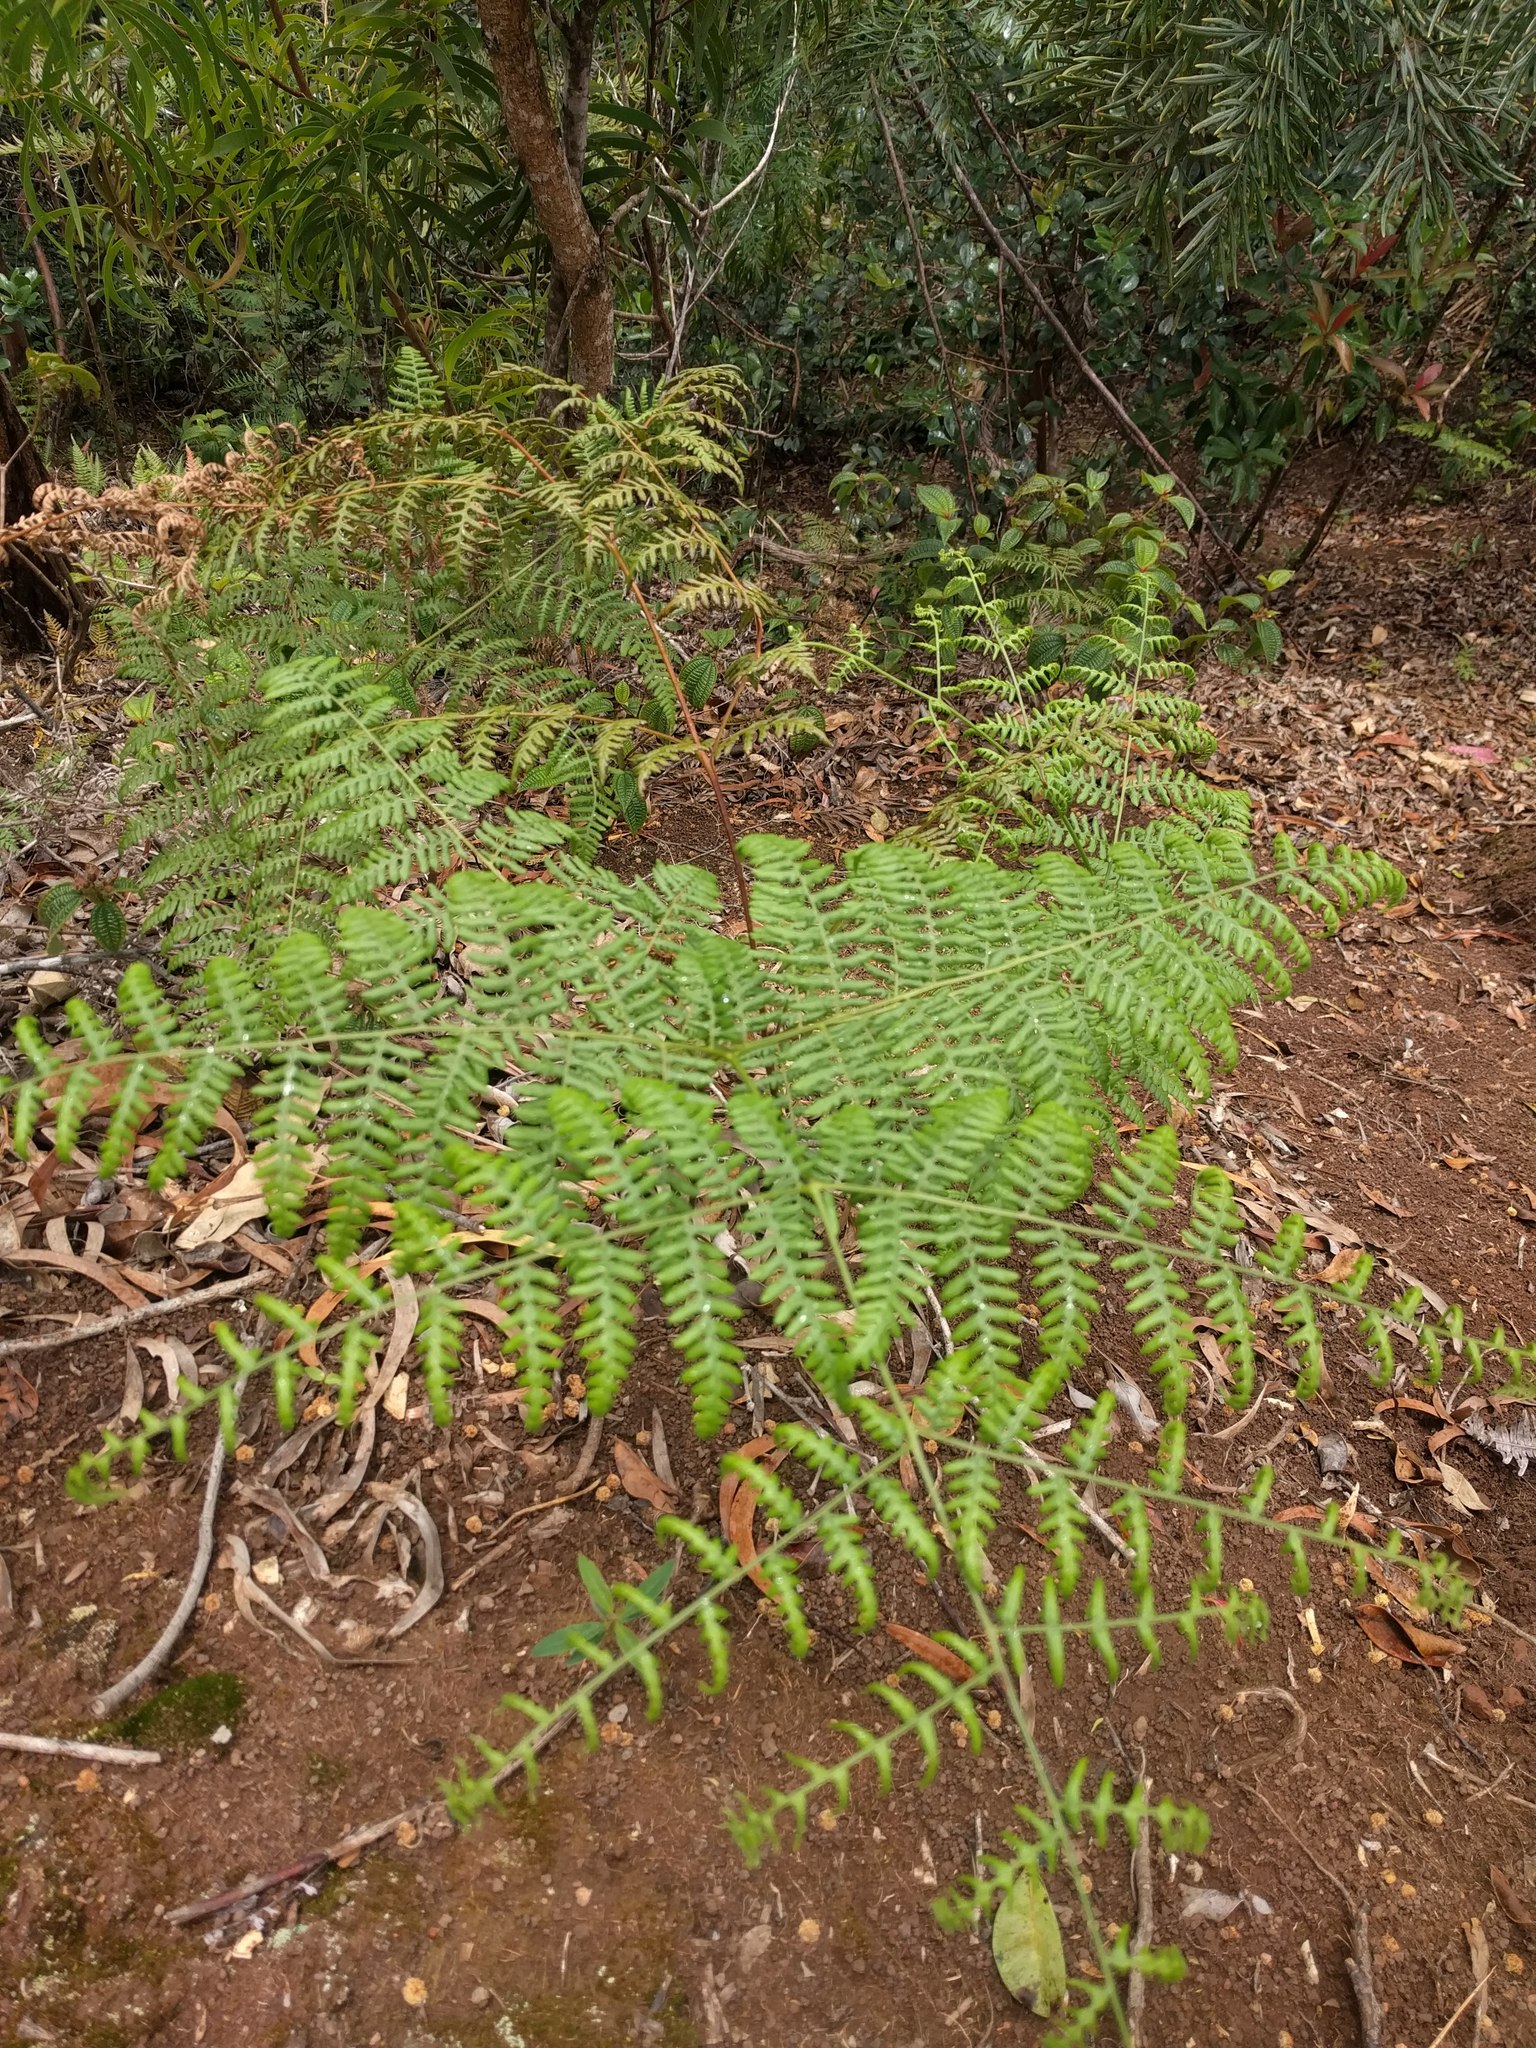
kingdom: Plantae
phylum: Tracheophyta
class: Polypodiopsida
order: Polypodiales
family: Dennstaedtiaceae
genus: Pteridium
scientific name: Pteridium aquilinum
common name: Bracken
